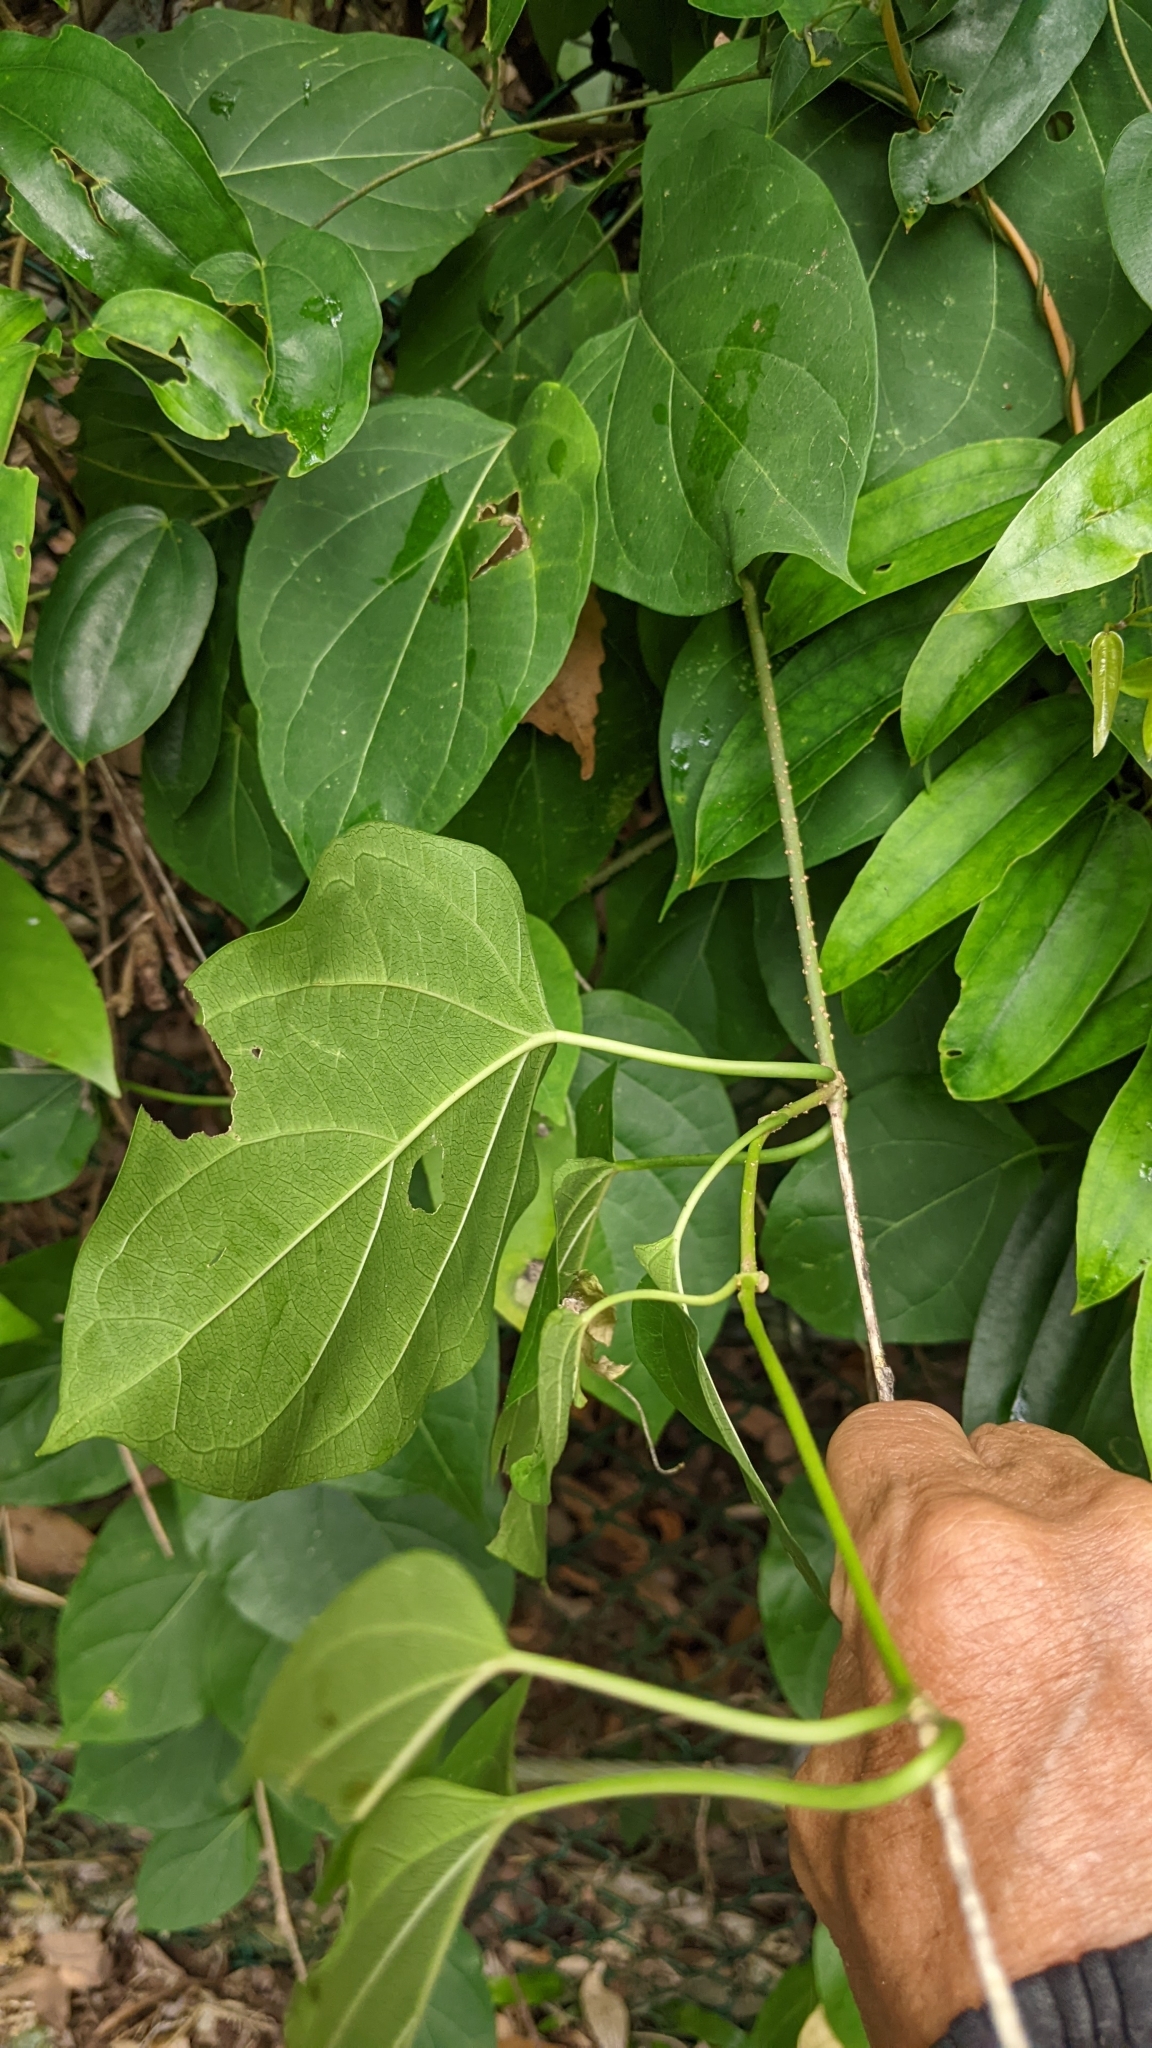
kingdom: Plantae
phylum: Tracheophyta
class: Magnoliopsida
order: Gentianales
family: Apocynaceae
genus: Stephanotis
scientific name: Stephanotis volubilis
